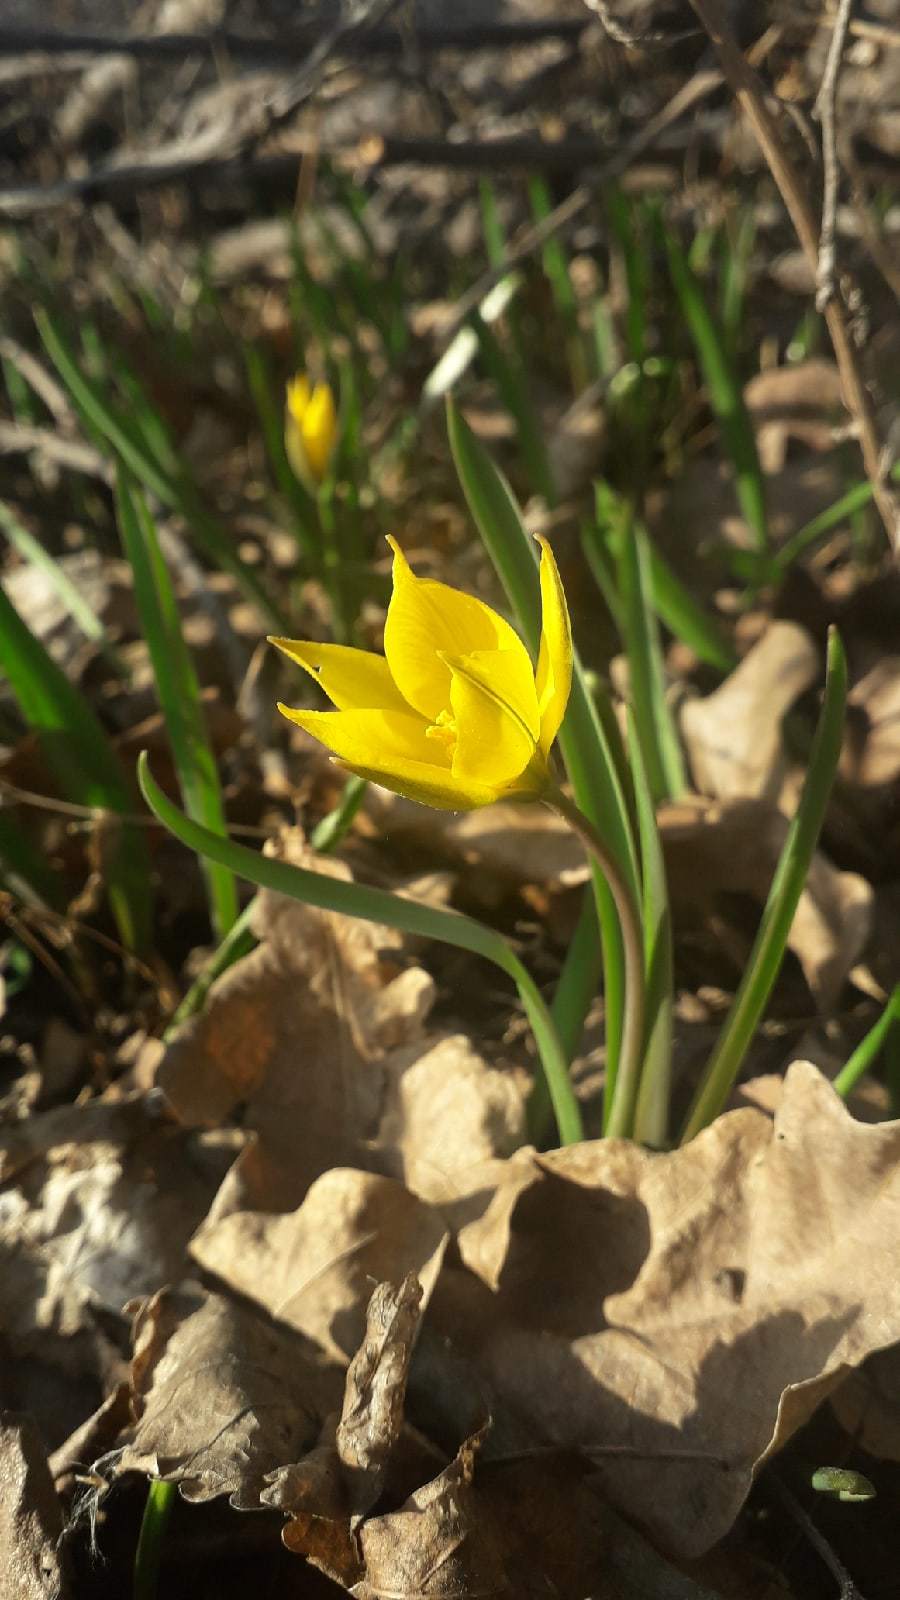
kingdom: Plantae
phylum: Tracheophyta
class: Liliopsida
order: Liliales
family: Liliaceae
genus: Tulipa
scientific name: Tulipa sylvestris
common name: Wild tulip
